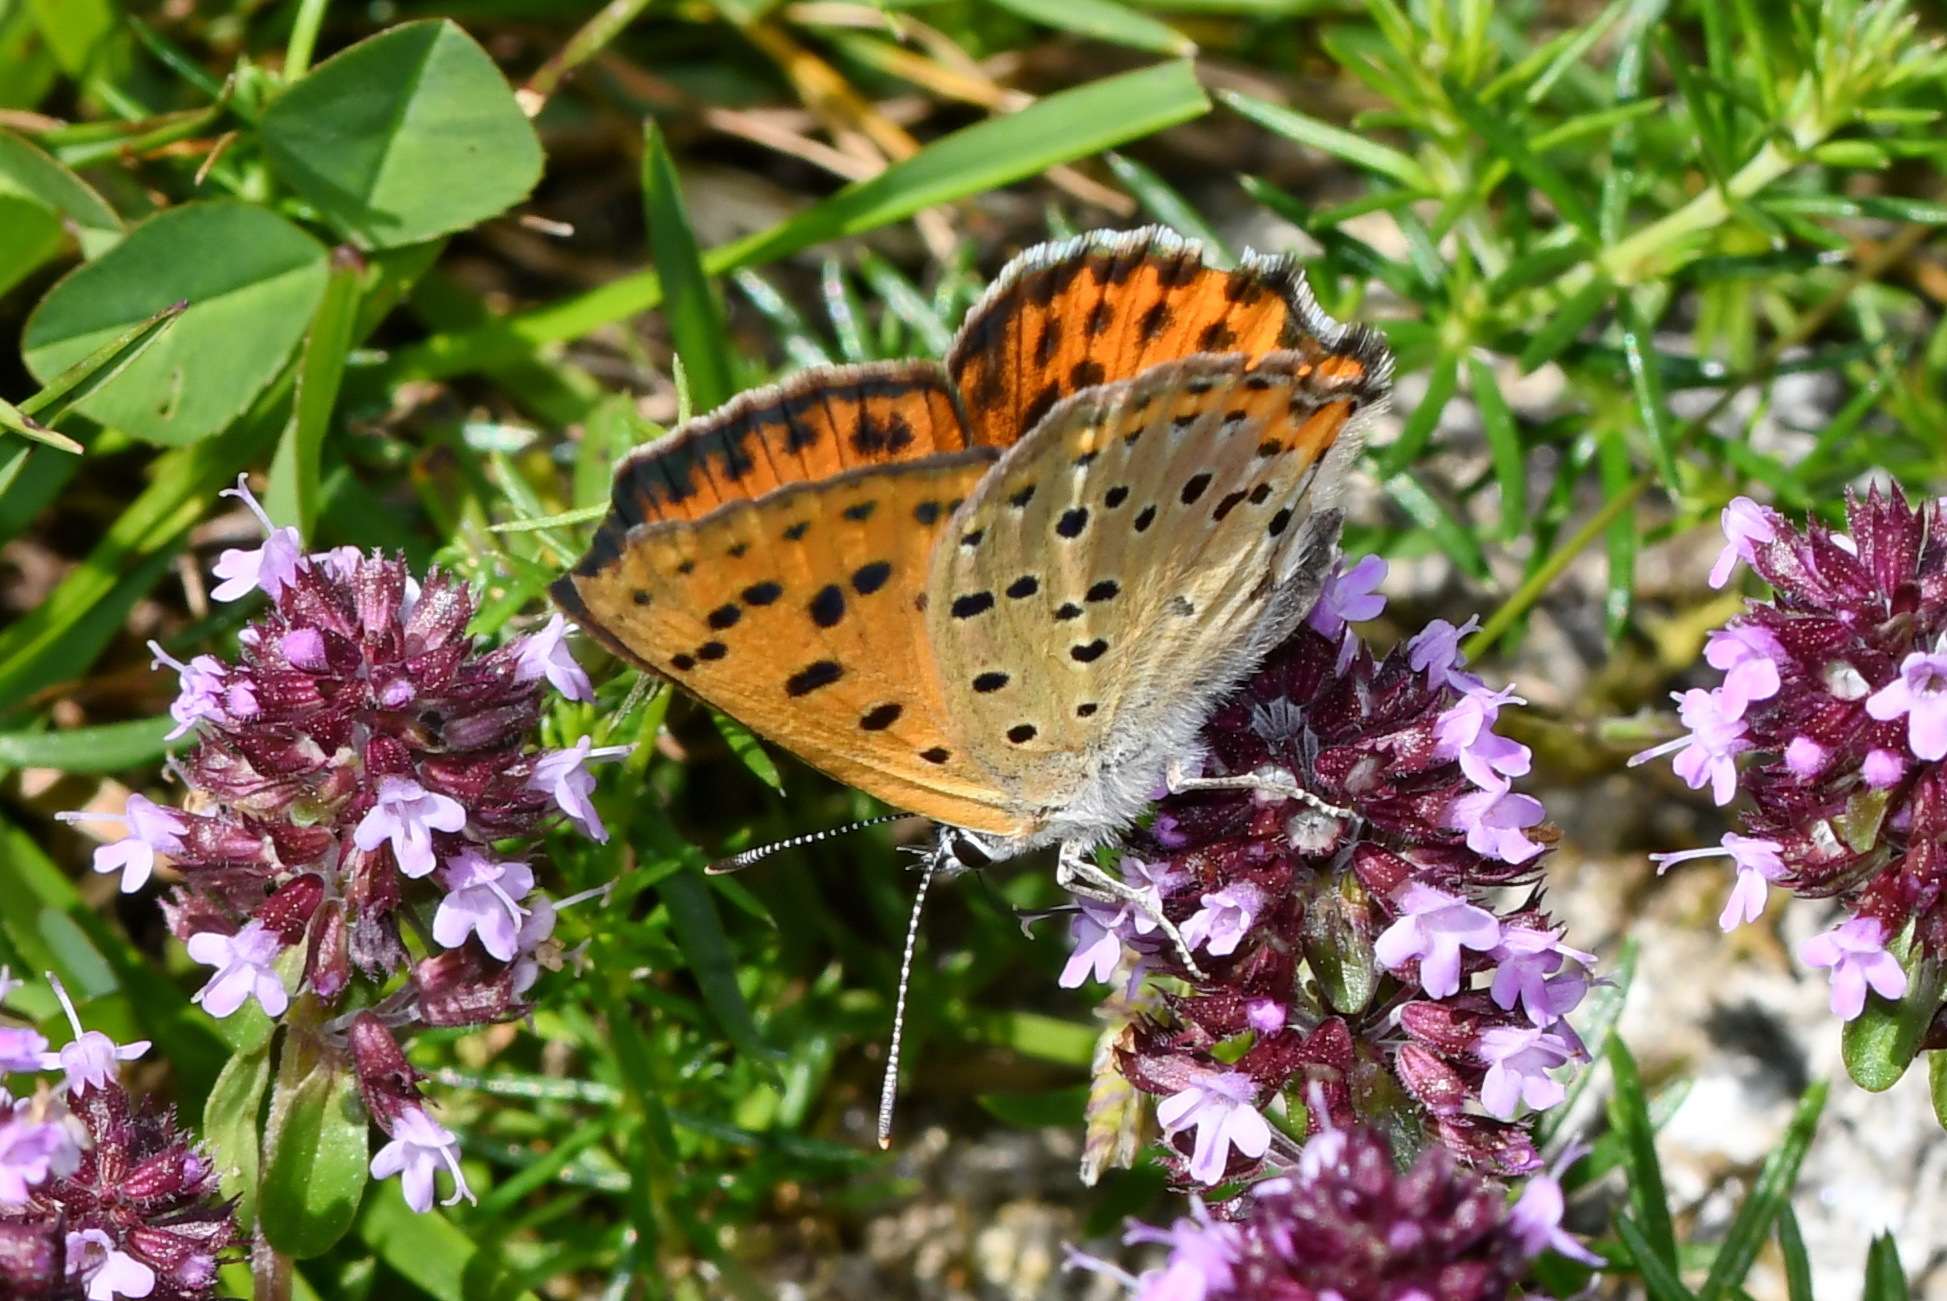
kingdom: Animalia
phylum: Arthropoda
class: Insecta
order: Lepidoptera
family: Lycaenidae
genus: Lycaena
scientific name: Lycaena alciphron
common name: Purple-shot copper
